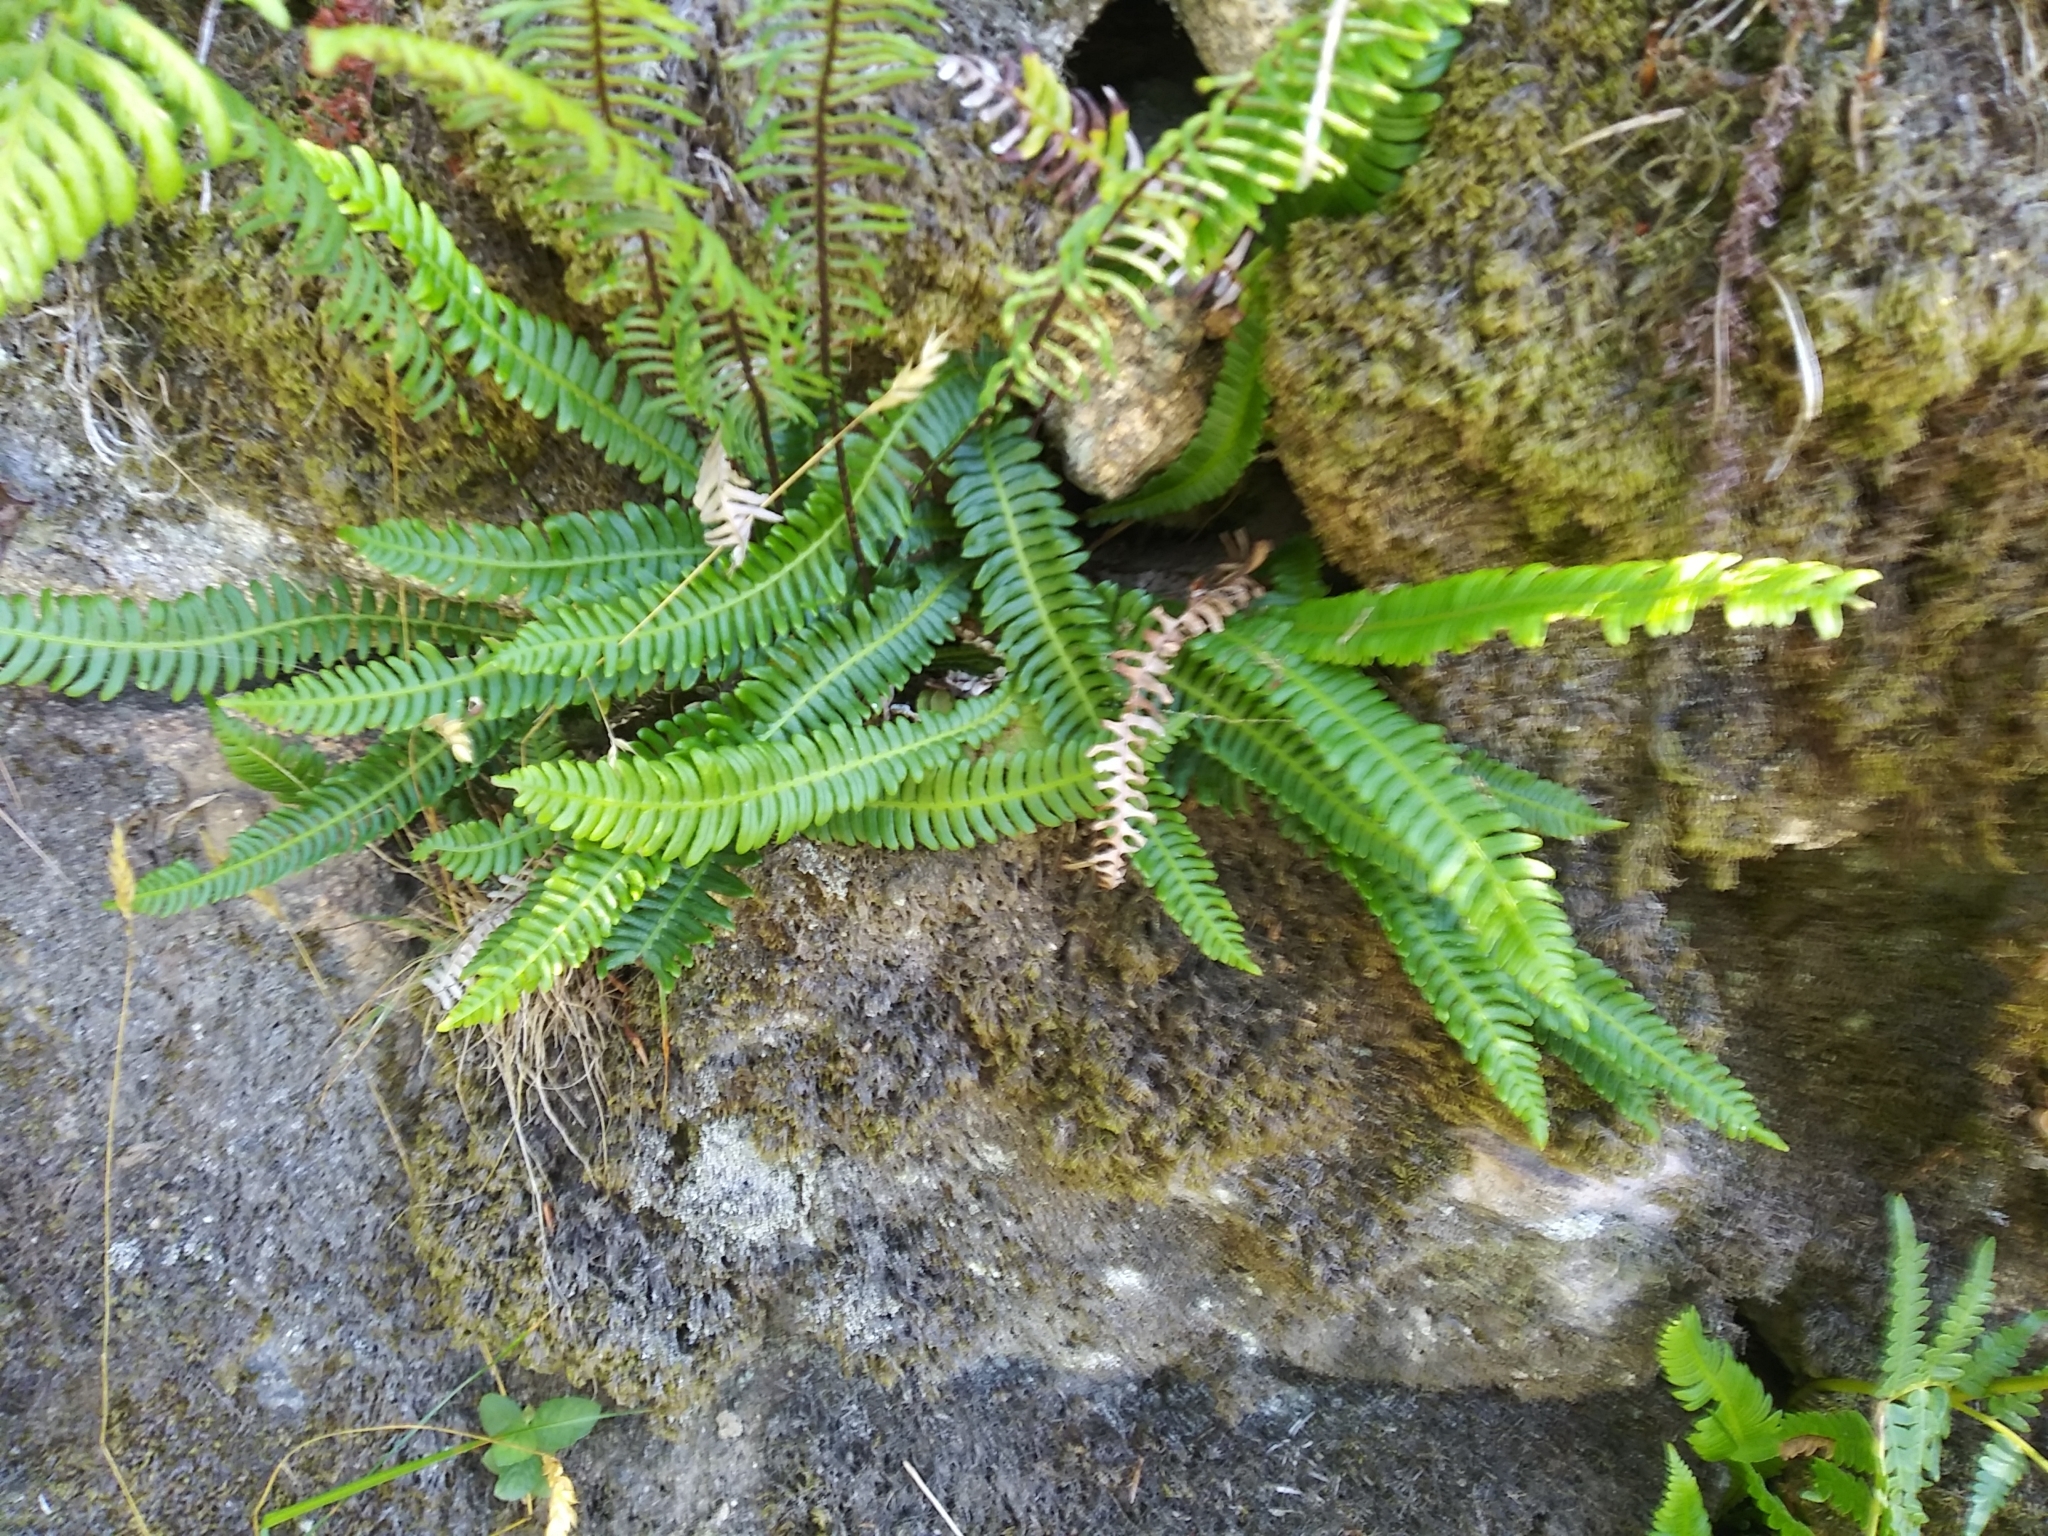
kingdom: Plantae
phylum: Tracheophyta
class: Polypodiopsida
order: Polypodiales
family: Blechnaceae
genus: Struthiopteris
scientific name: Struthiopteris spicant
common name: Deer fern
